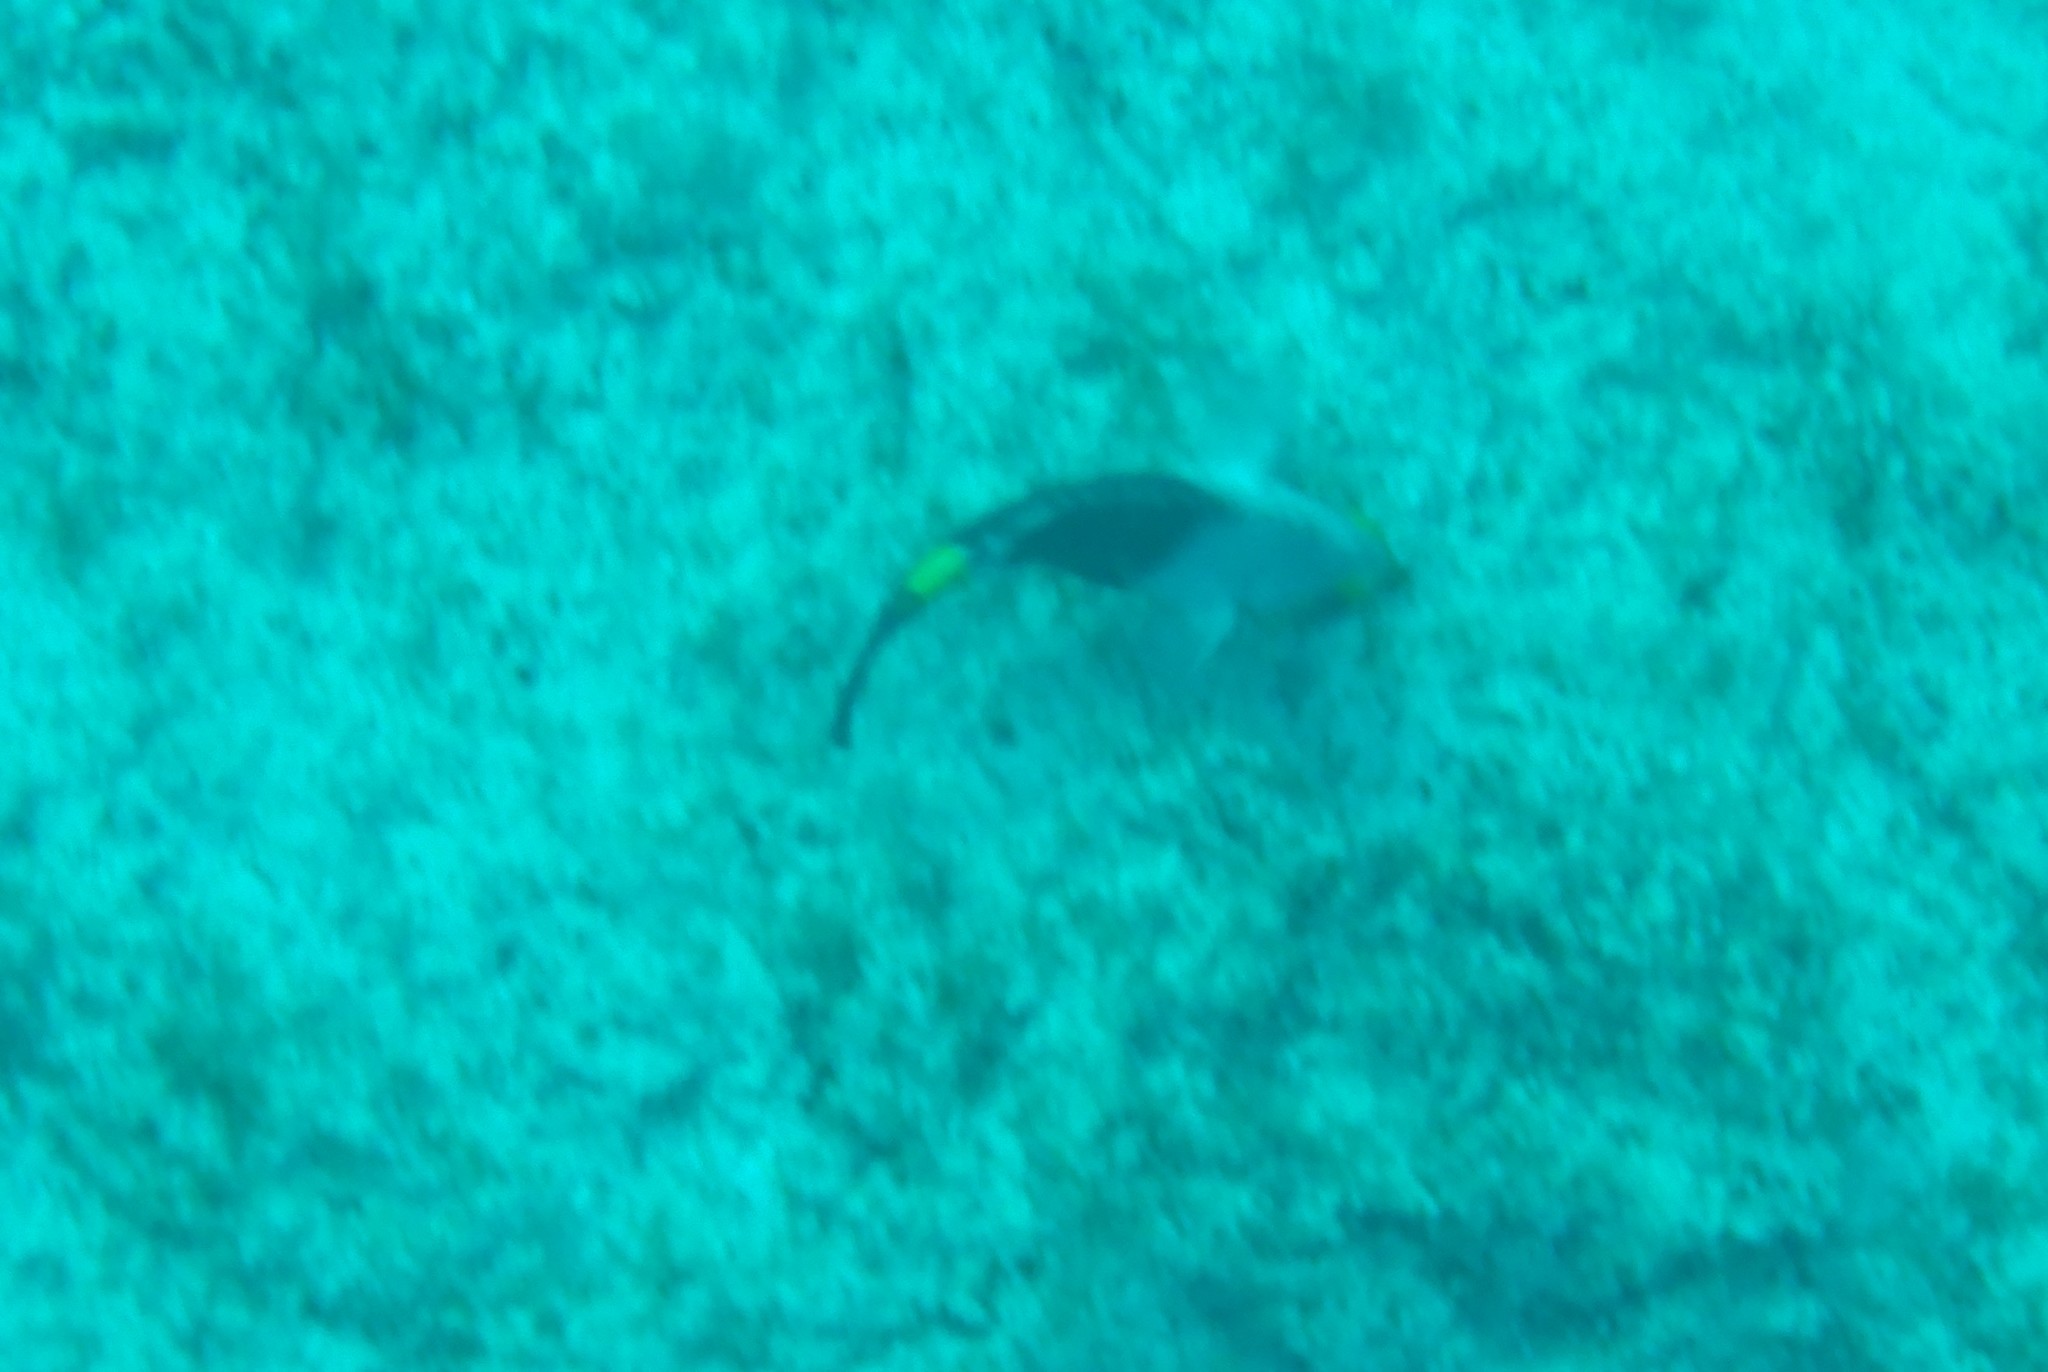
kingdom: Animalia
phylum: Chordata
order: Perciformes
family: Scaridae
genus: Sparisoma
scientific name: Sparisoma cretense
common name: Parrotfish
